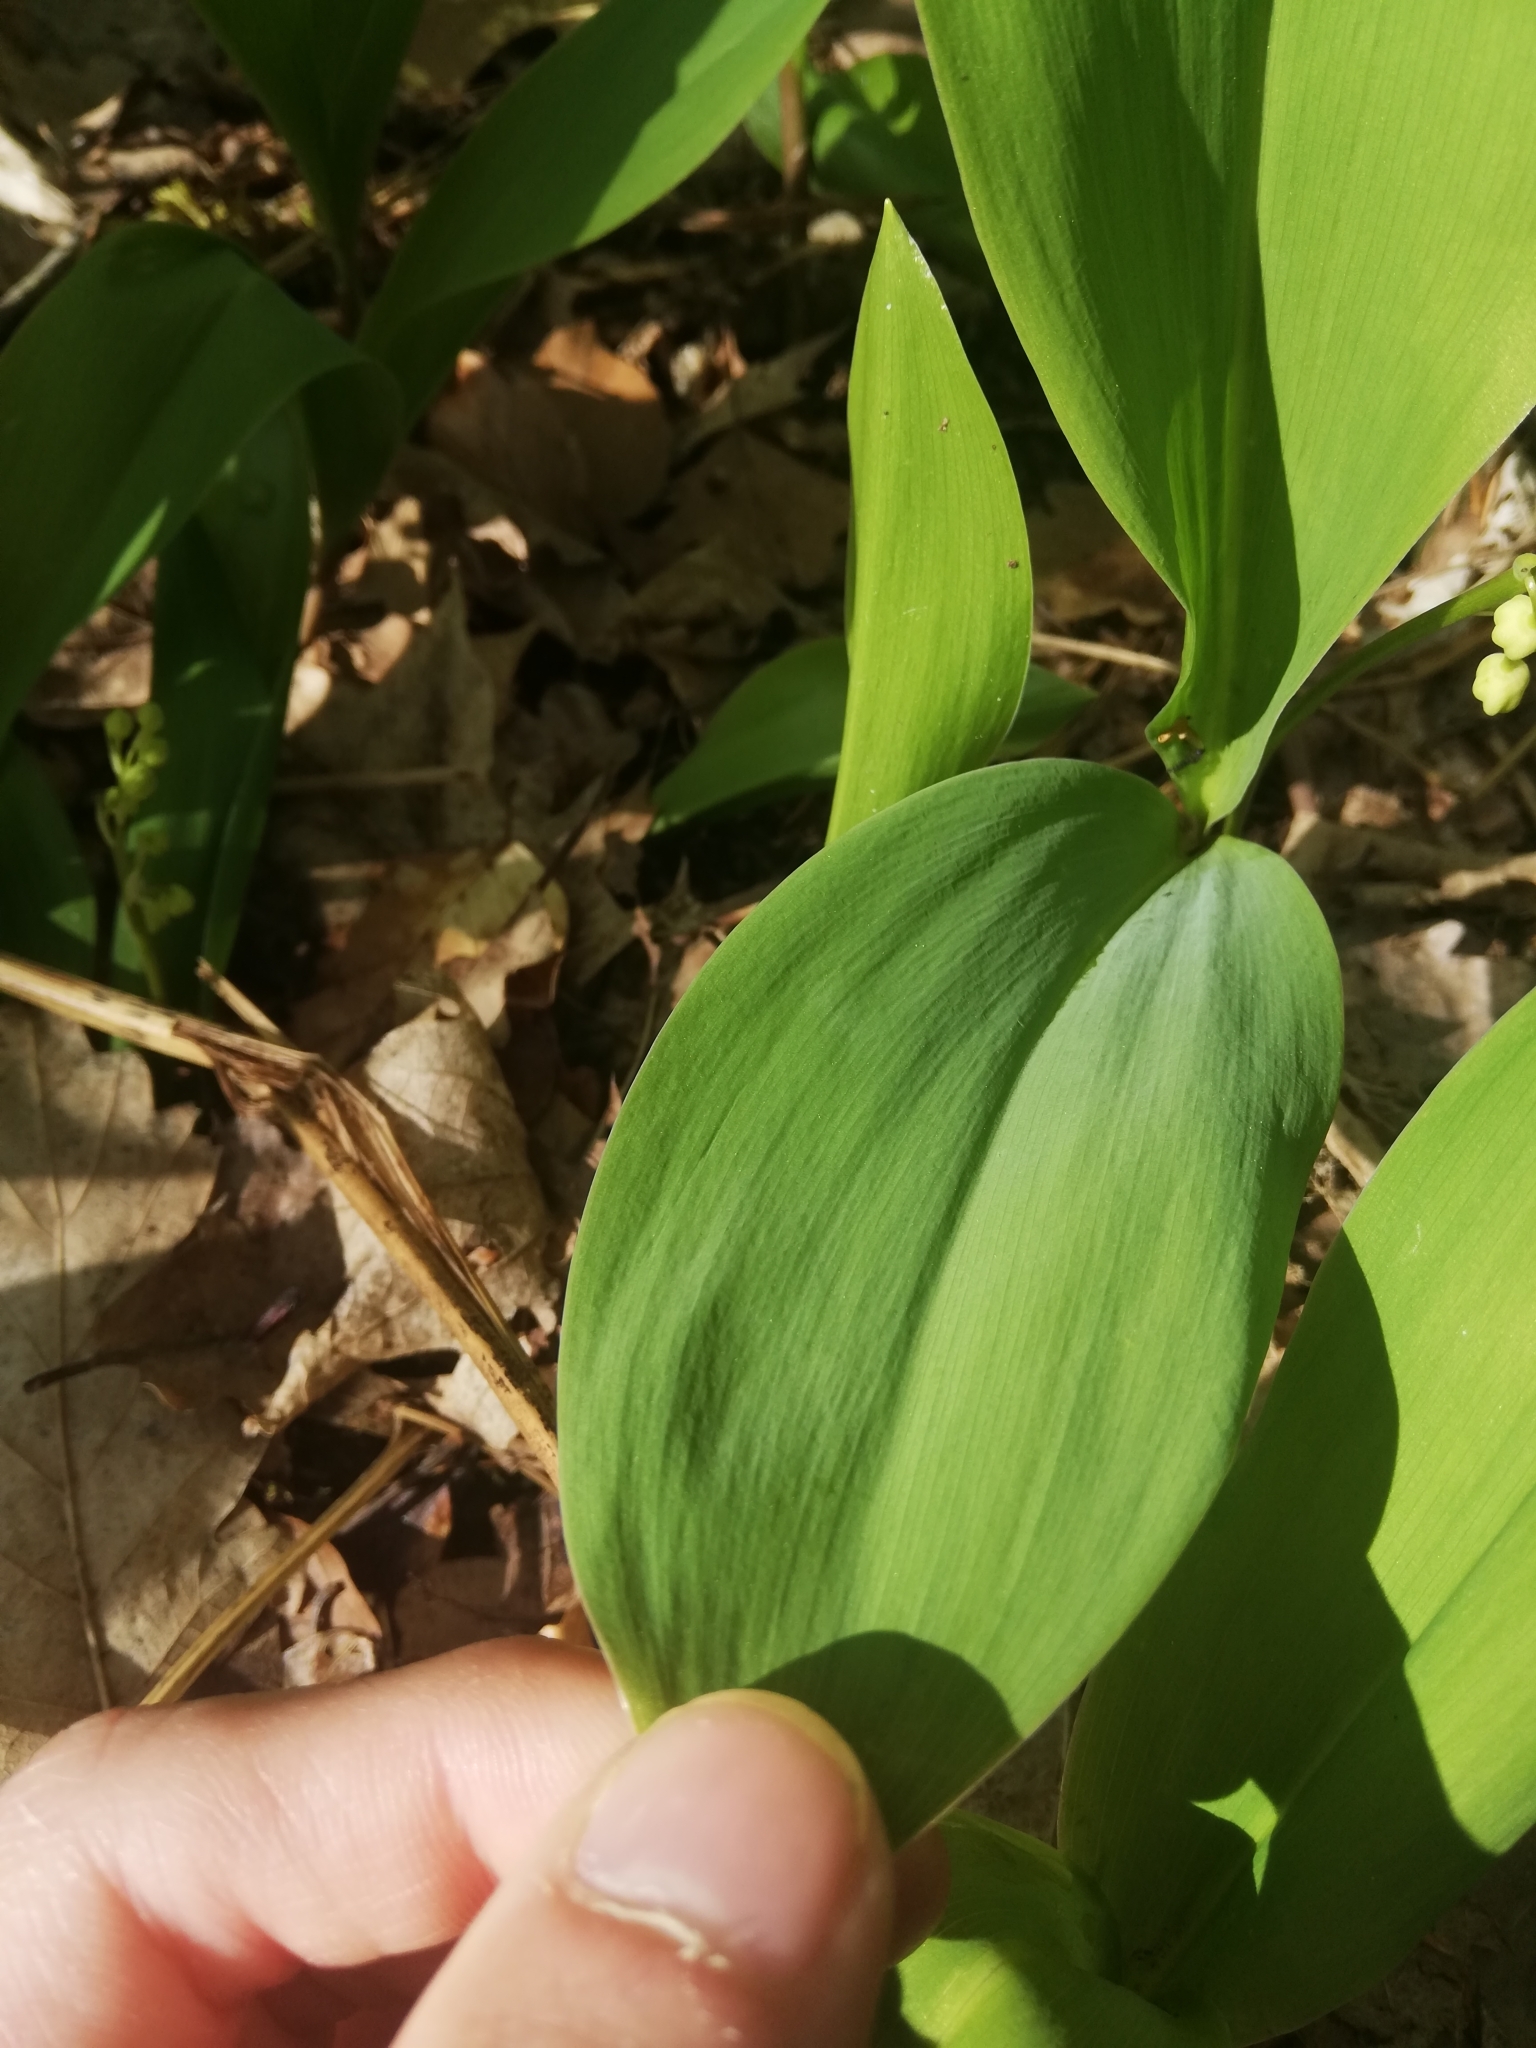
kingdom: Plantae
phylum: Tracheophyta
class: Liliopsida
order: Asparagales
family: Asparagaceae
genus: Convallaria
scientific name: Convallaria majalis
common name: Lily-of-the-valley
